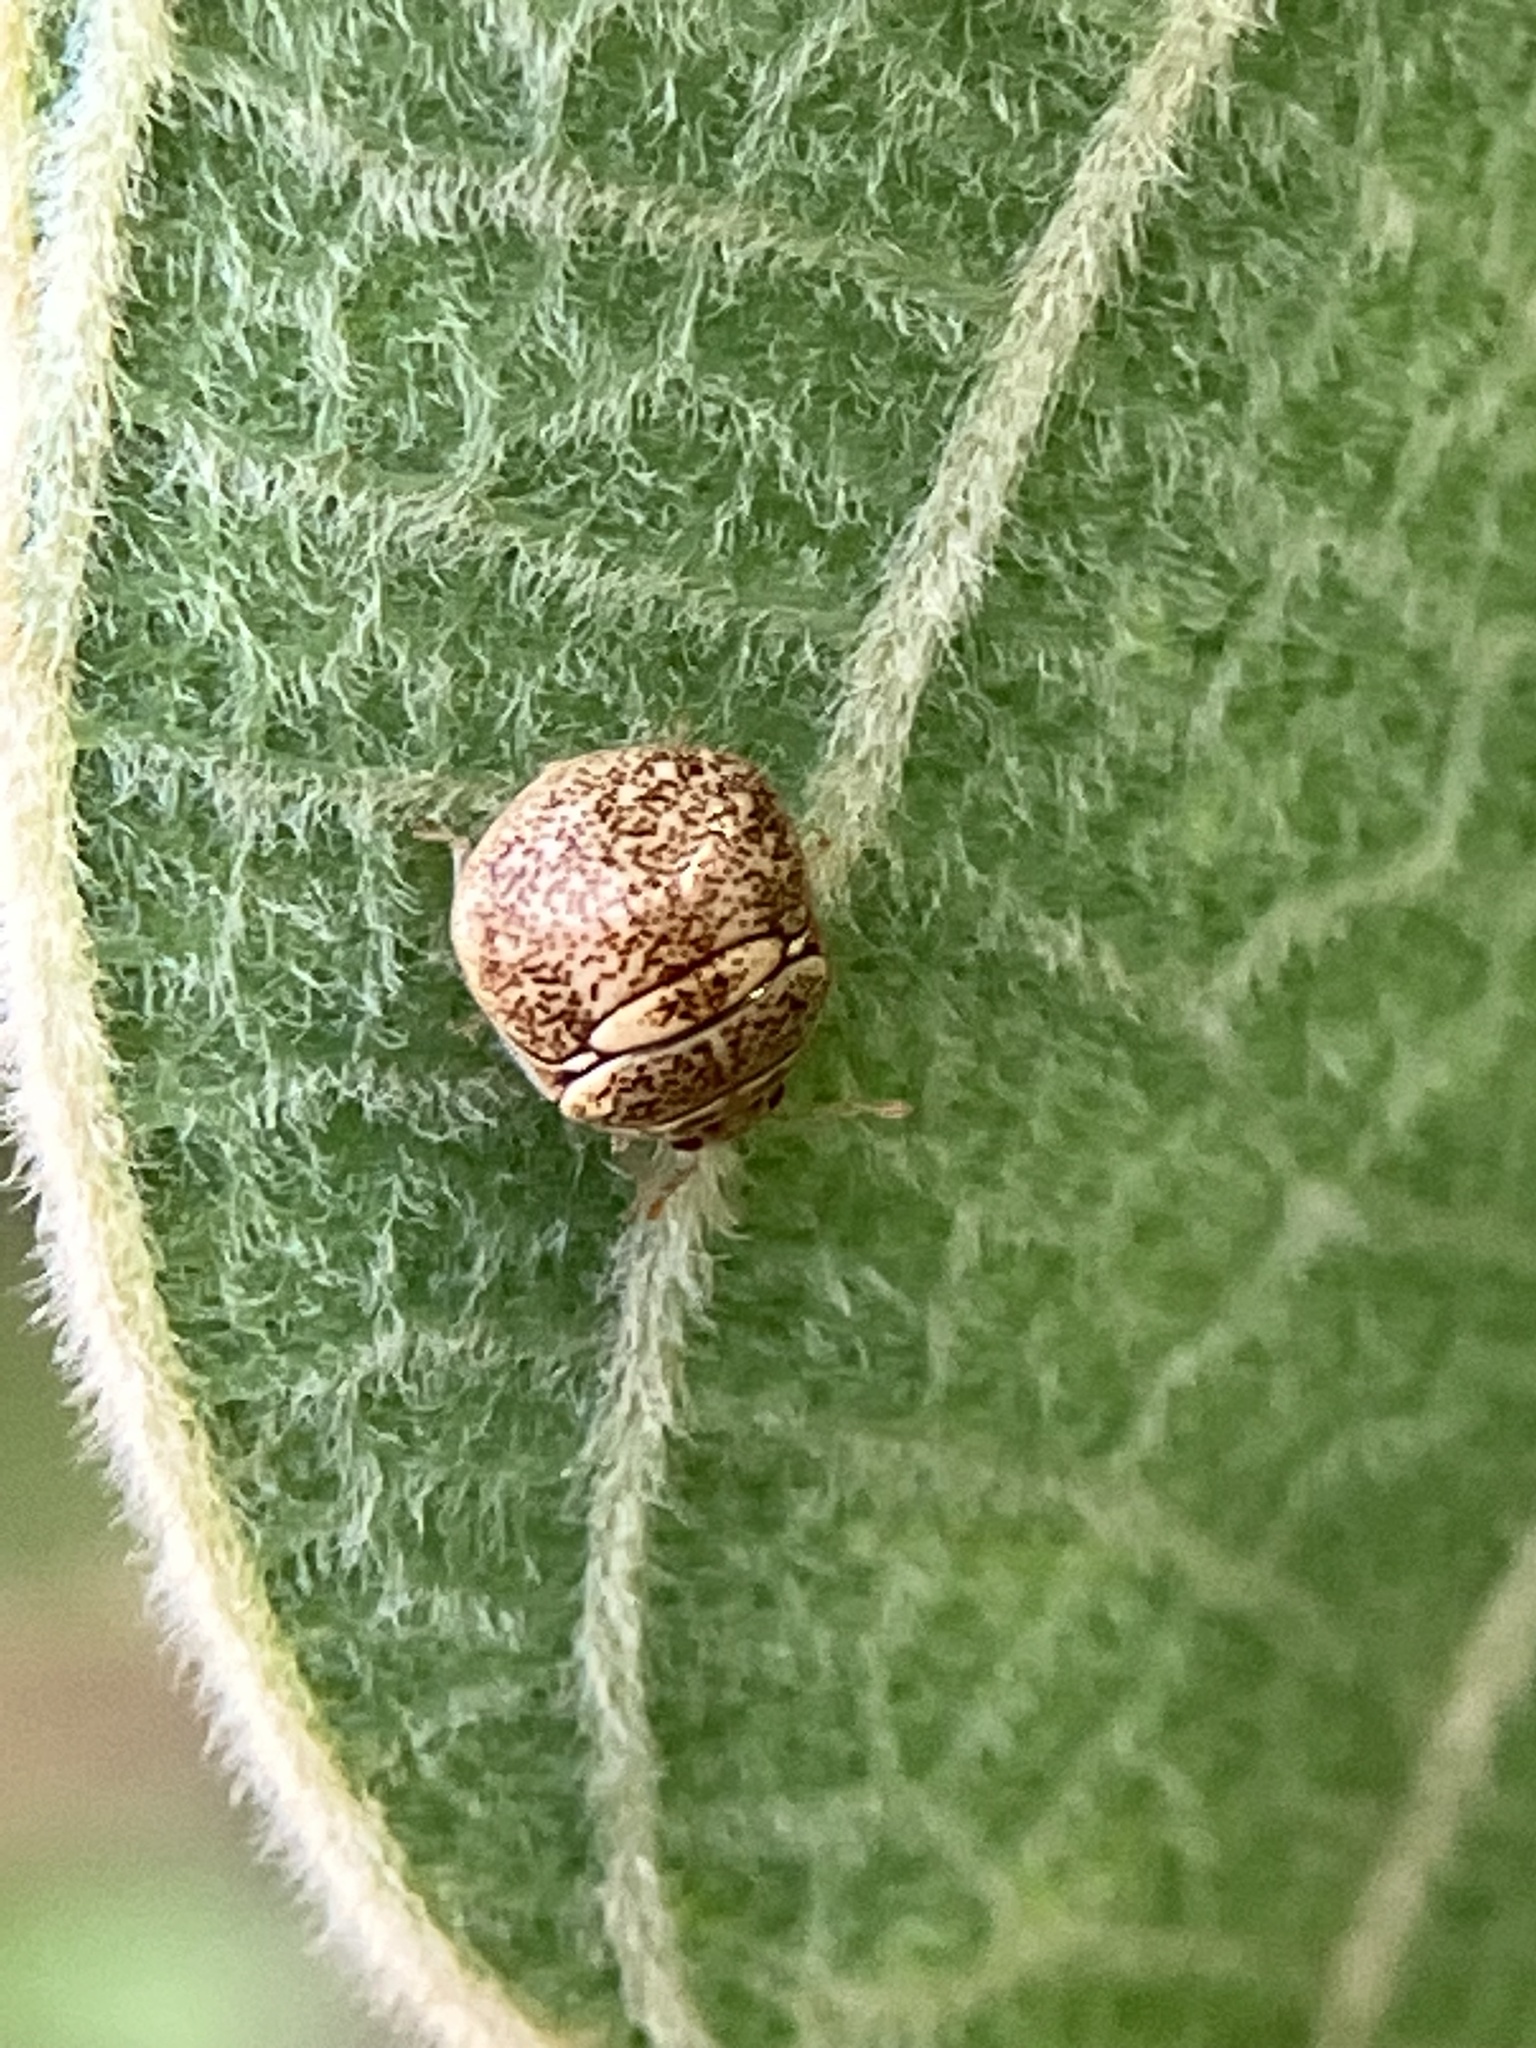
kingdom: Animalia
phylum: Arthropoda
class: Insecta
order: Hemiptera
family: Plataspidae
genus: Megacopta
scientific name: Megacopta cribraria
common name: Bean plataspid
